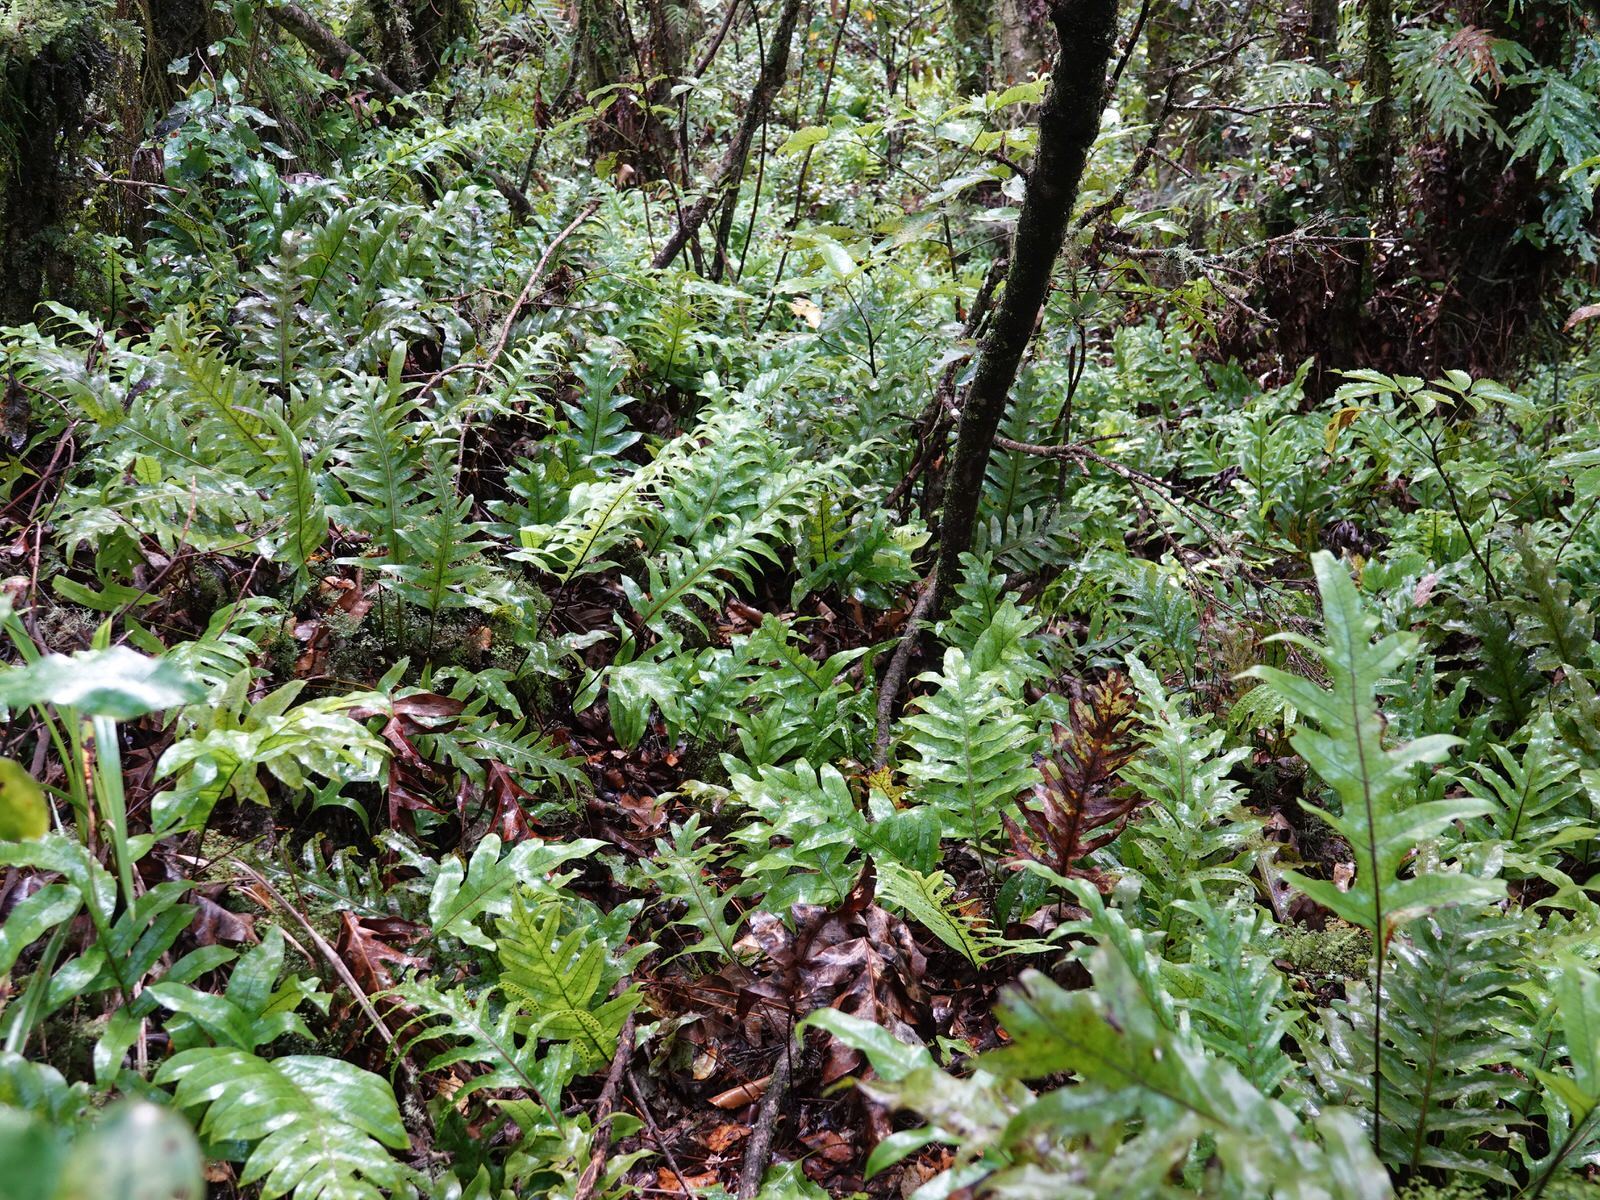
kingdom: Plantae
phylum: Tracheophyta
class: Polypodiopsida
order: Polypodiales
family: Polypodiaceae
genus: Lecanopteris
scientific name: Lecanopteris pustulata
